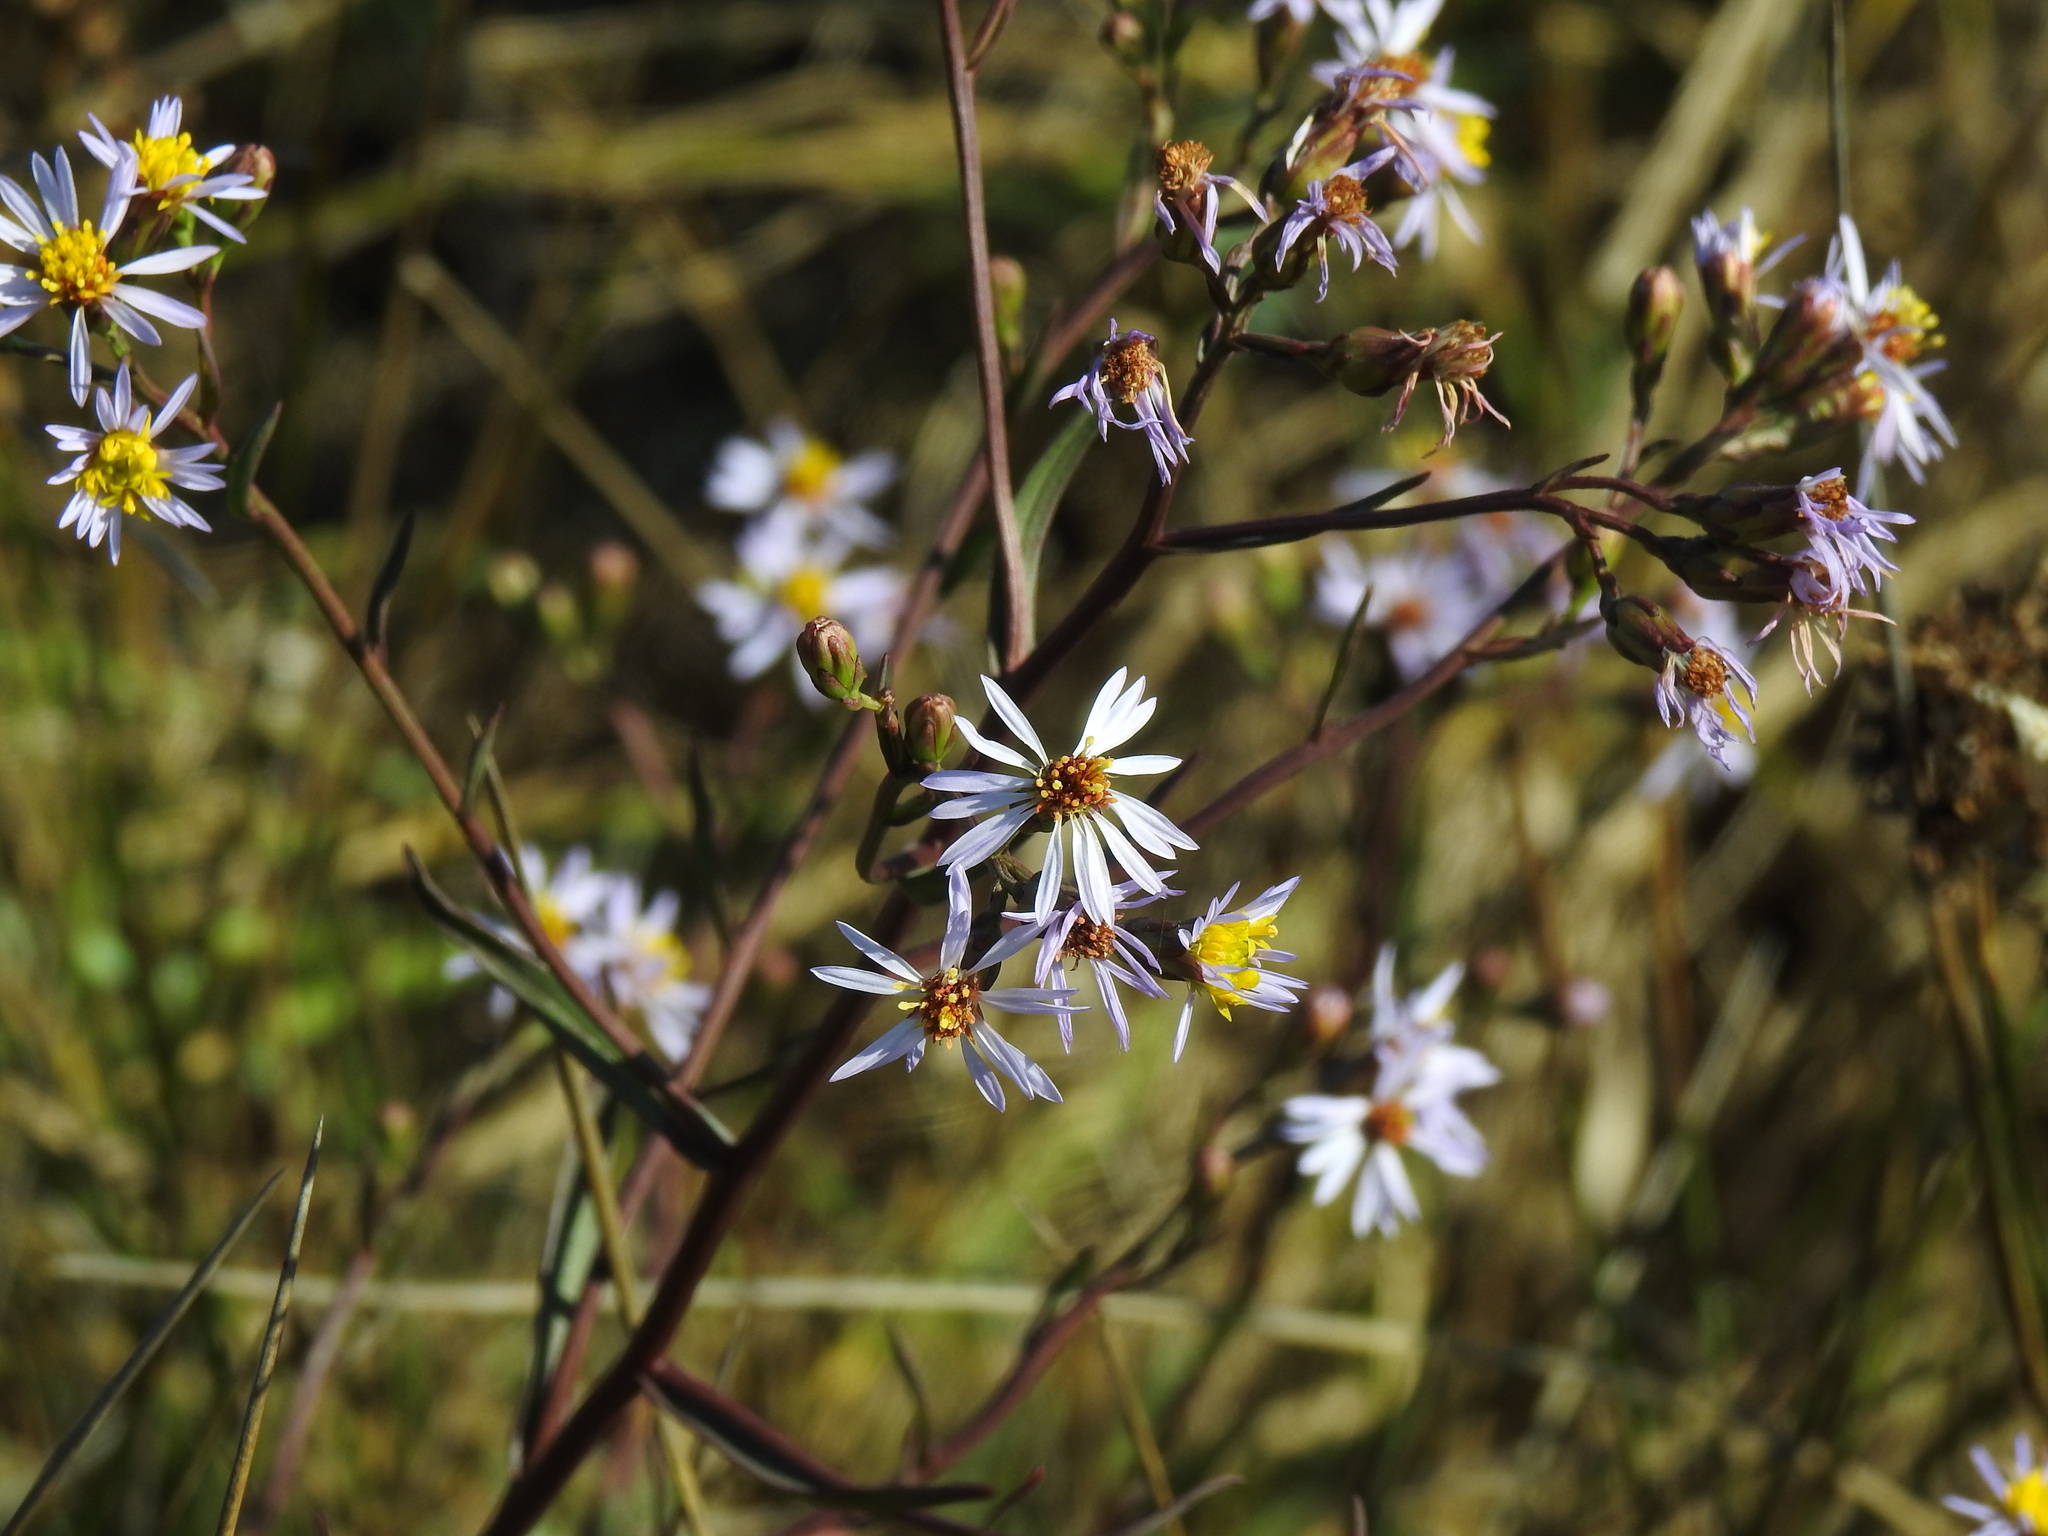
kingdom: Plantae
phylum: Tracheophyta
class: Magnoliopsida
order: Asterales
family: Asteraceae
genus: Tripolium
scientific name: Tripolium pannonicum
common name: Sea aster
